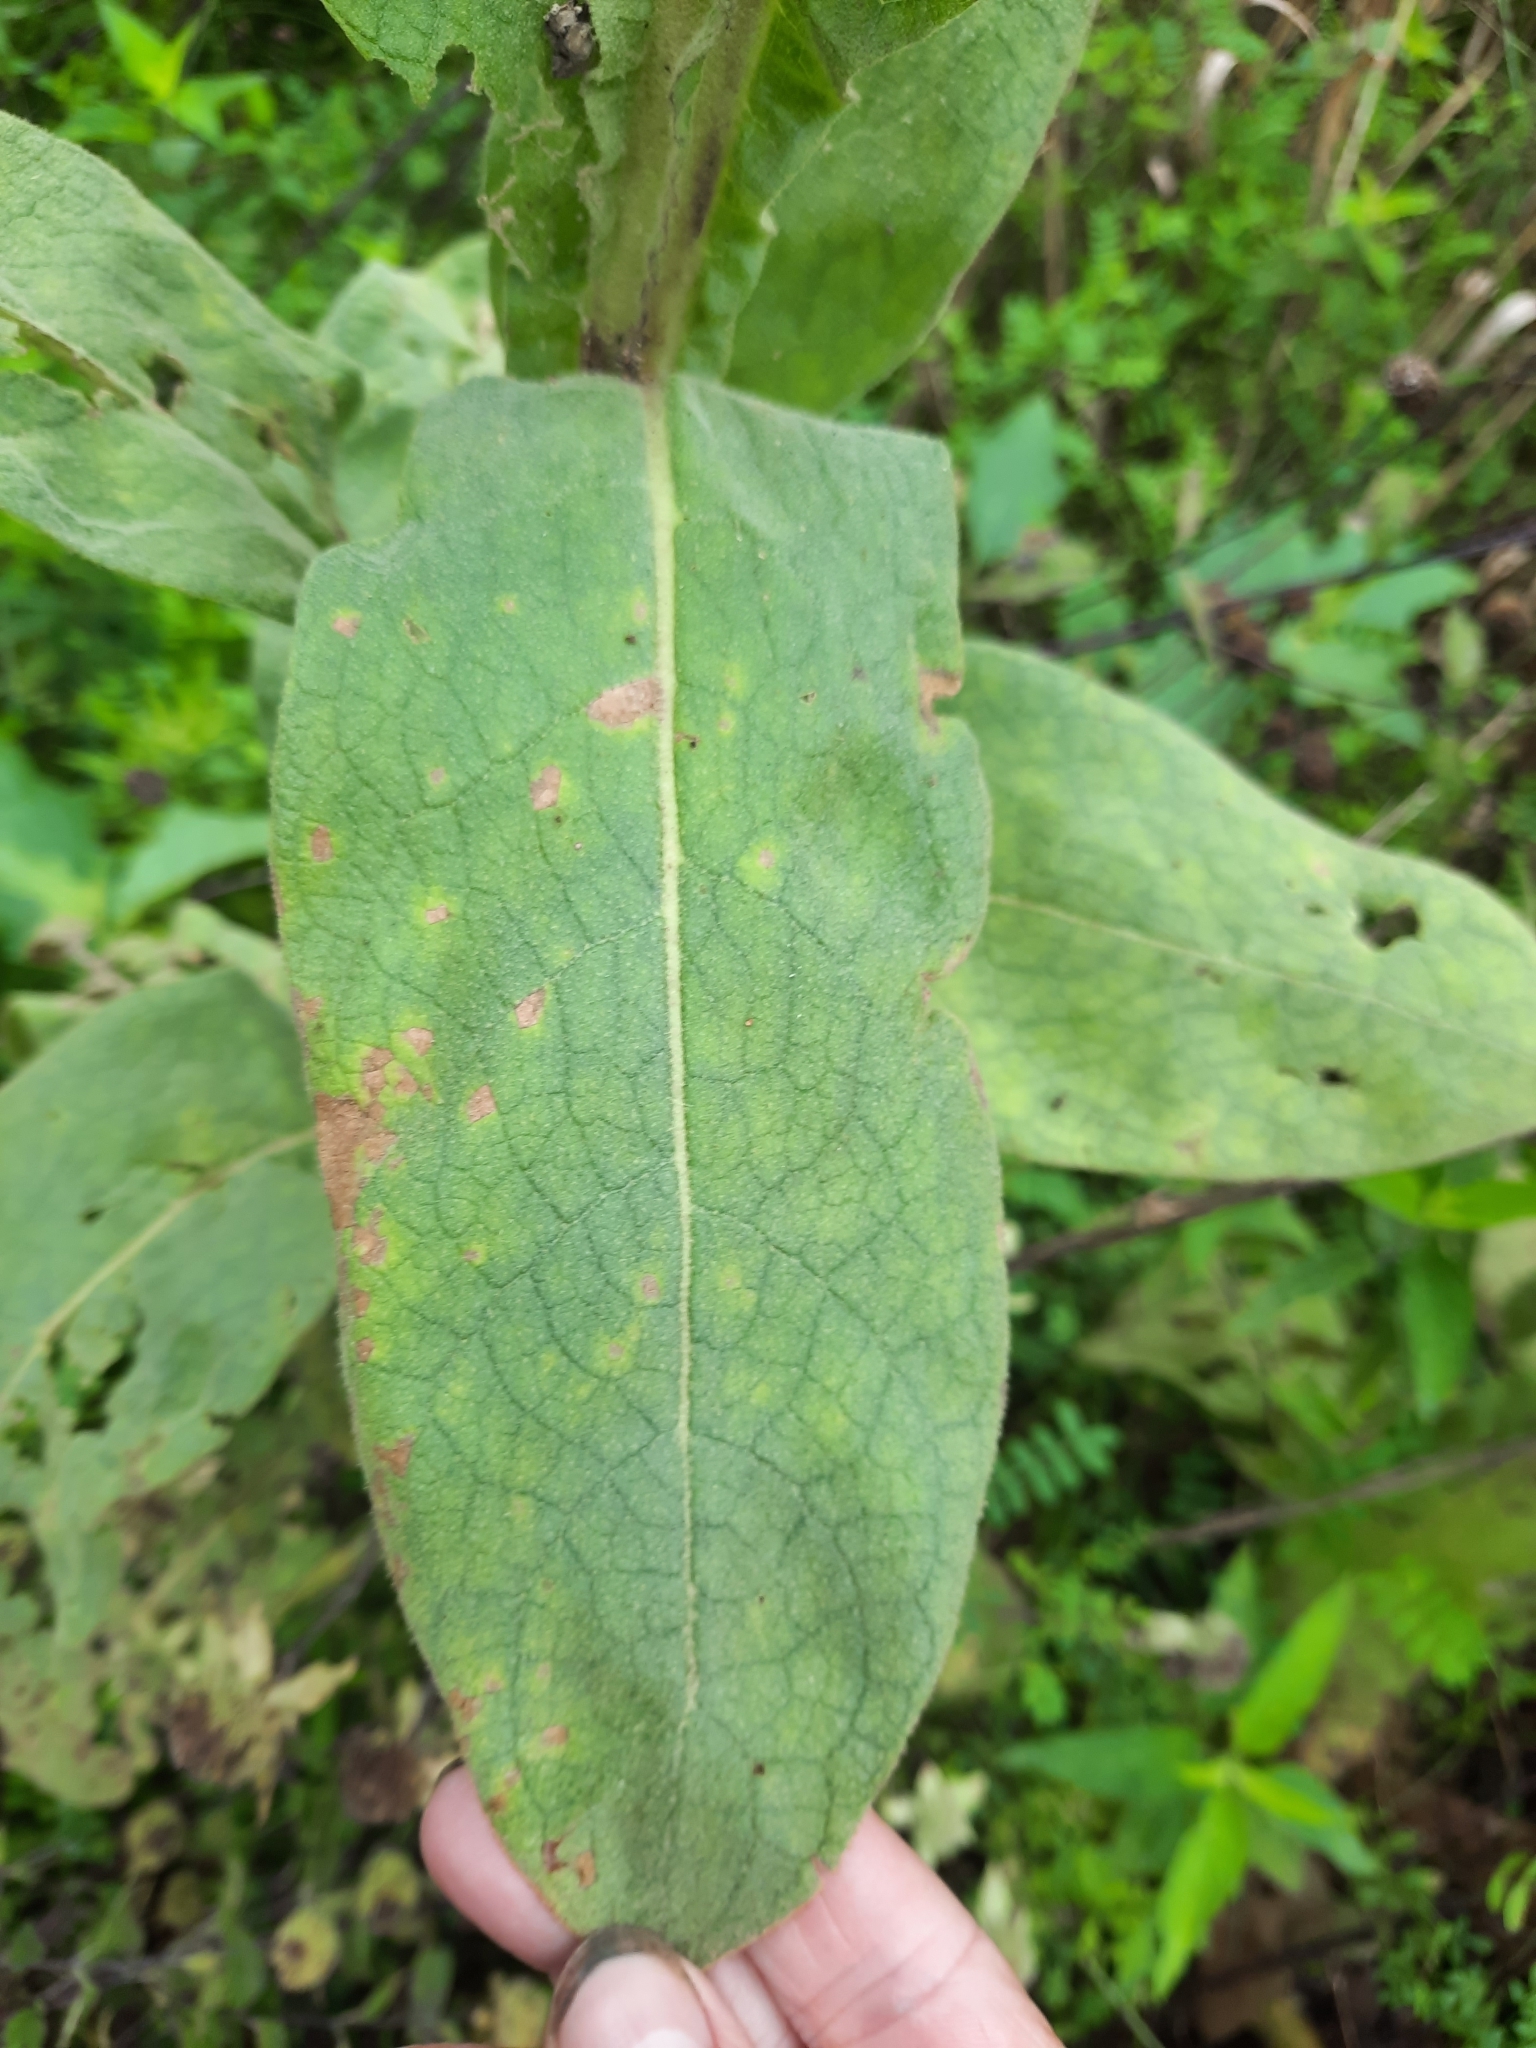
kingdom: Plantae
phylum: Tracheophyta
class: Magnoliopsida
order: Lamiales
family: Scrophulariaceae
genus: Verbascum
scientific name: Verbascum thapsus
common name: Common mullein
